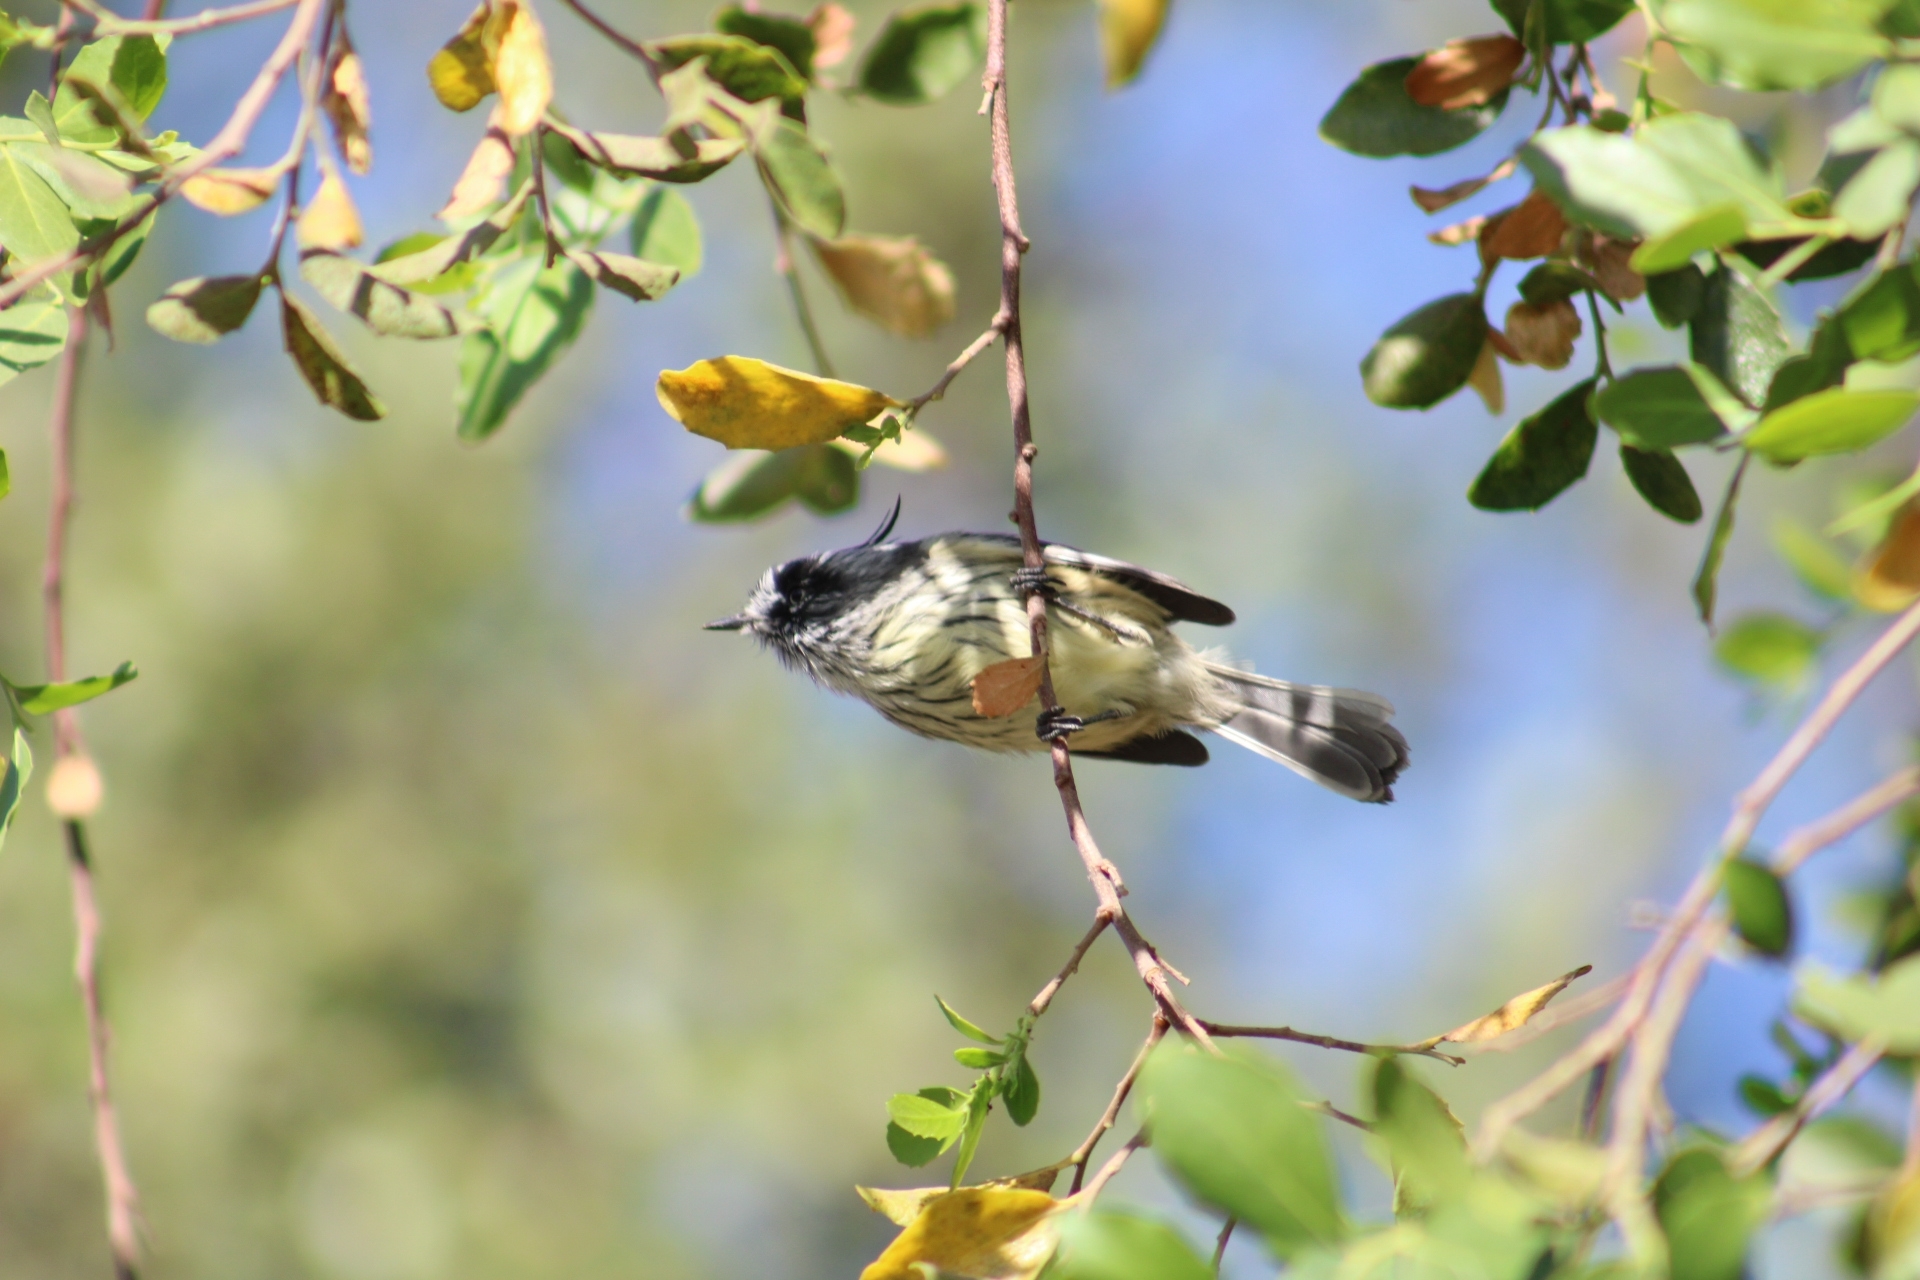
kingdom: Animalia
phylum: Chordata
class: Aves
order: Passeriformes
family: Tyrannidae
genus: Anairetes
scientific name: Anairetes parulus
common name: Tufted tit-tyrant
